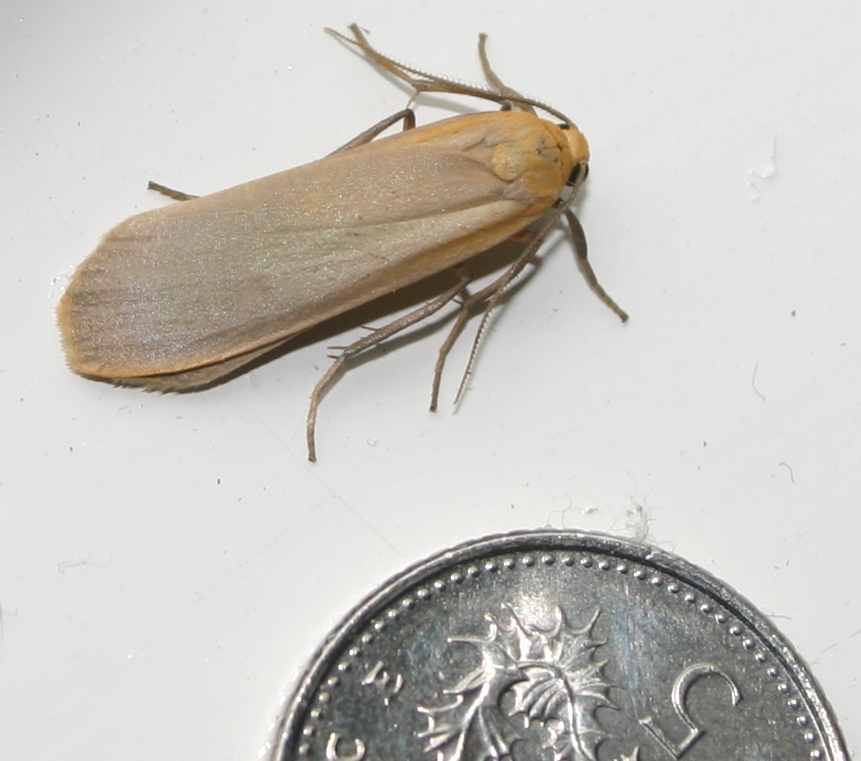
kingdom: Animalia
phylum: Arthropoda
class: Insecta
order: Lepidoptera
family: Erebidae
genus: Katha
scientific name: Katha depressa
